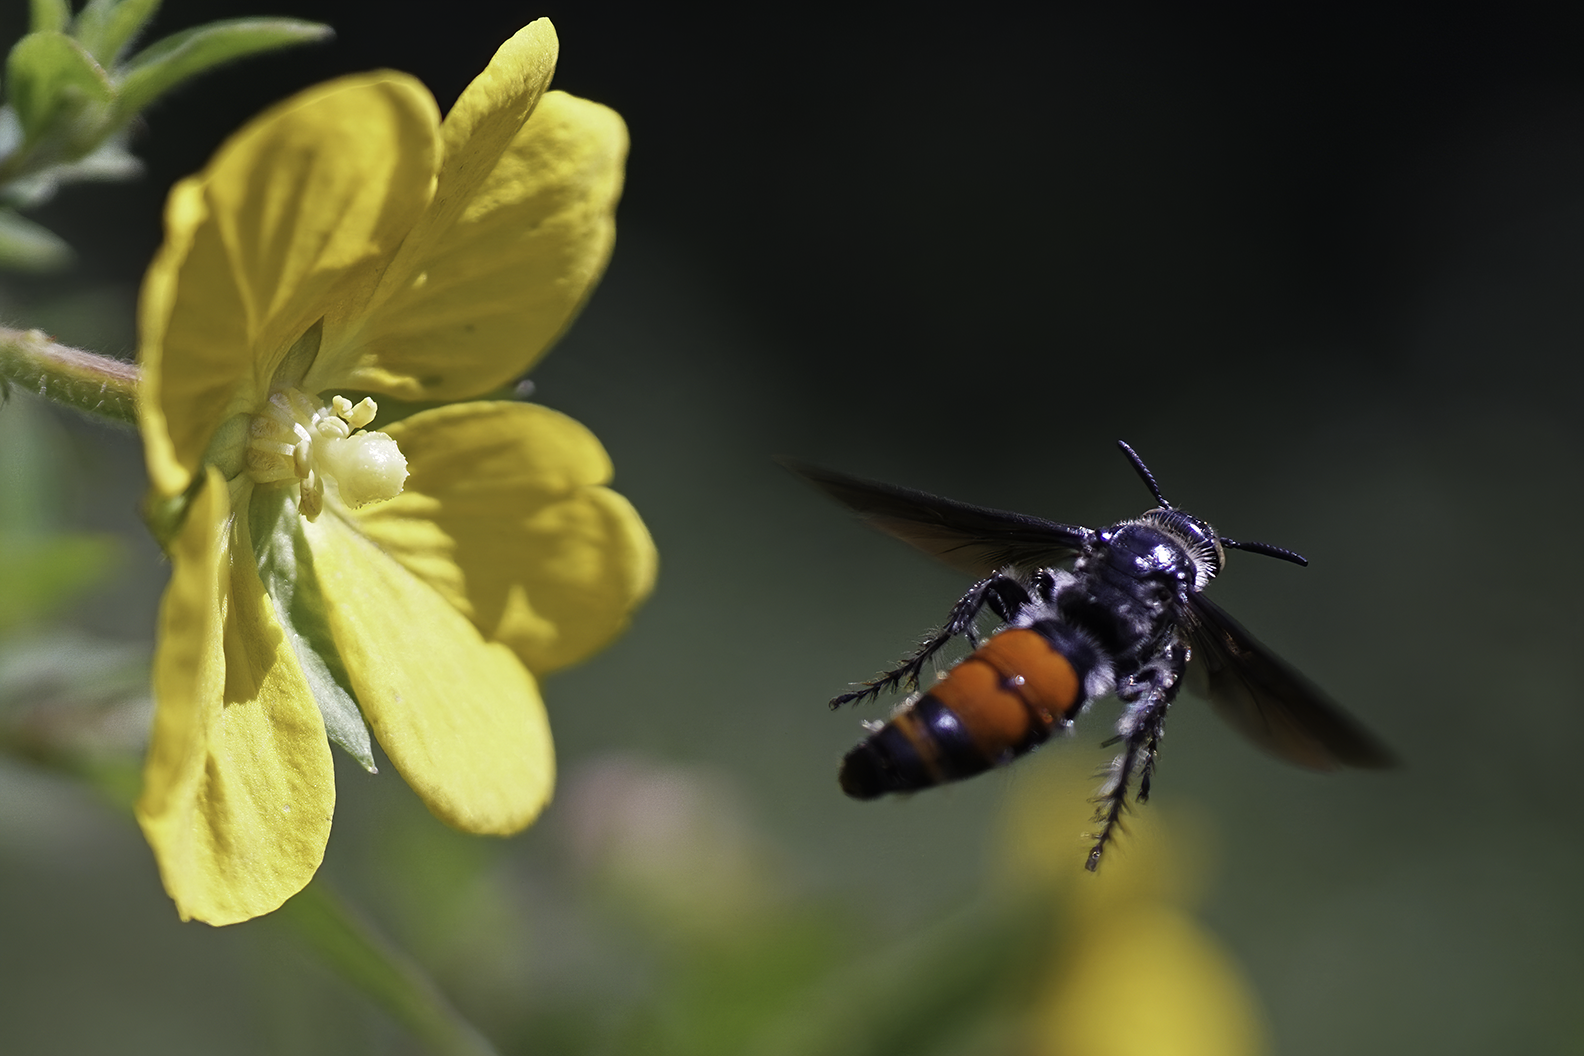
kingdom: Animalia
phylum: Arthropoda
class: Insecta
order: Hymenoptera
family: Scoliidae
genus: Dielis
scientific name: Dielis dorsata
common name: Scoliid wasp
